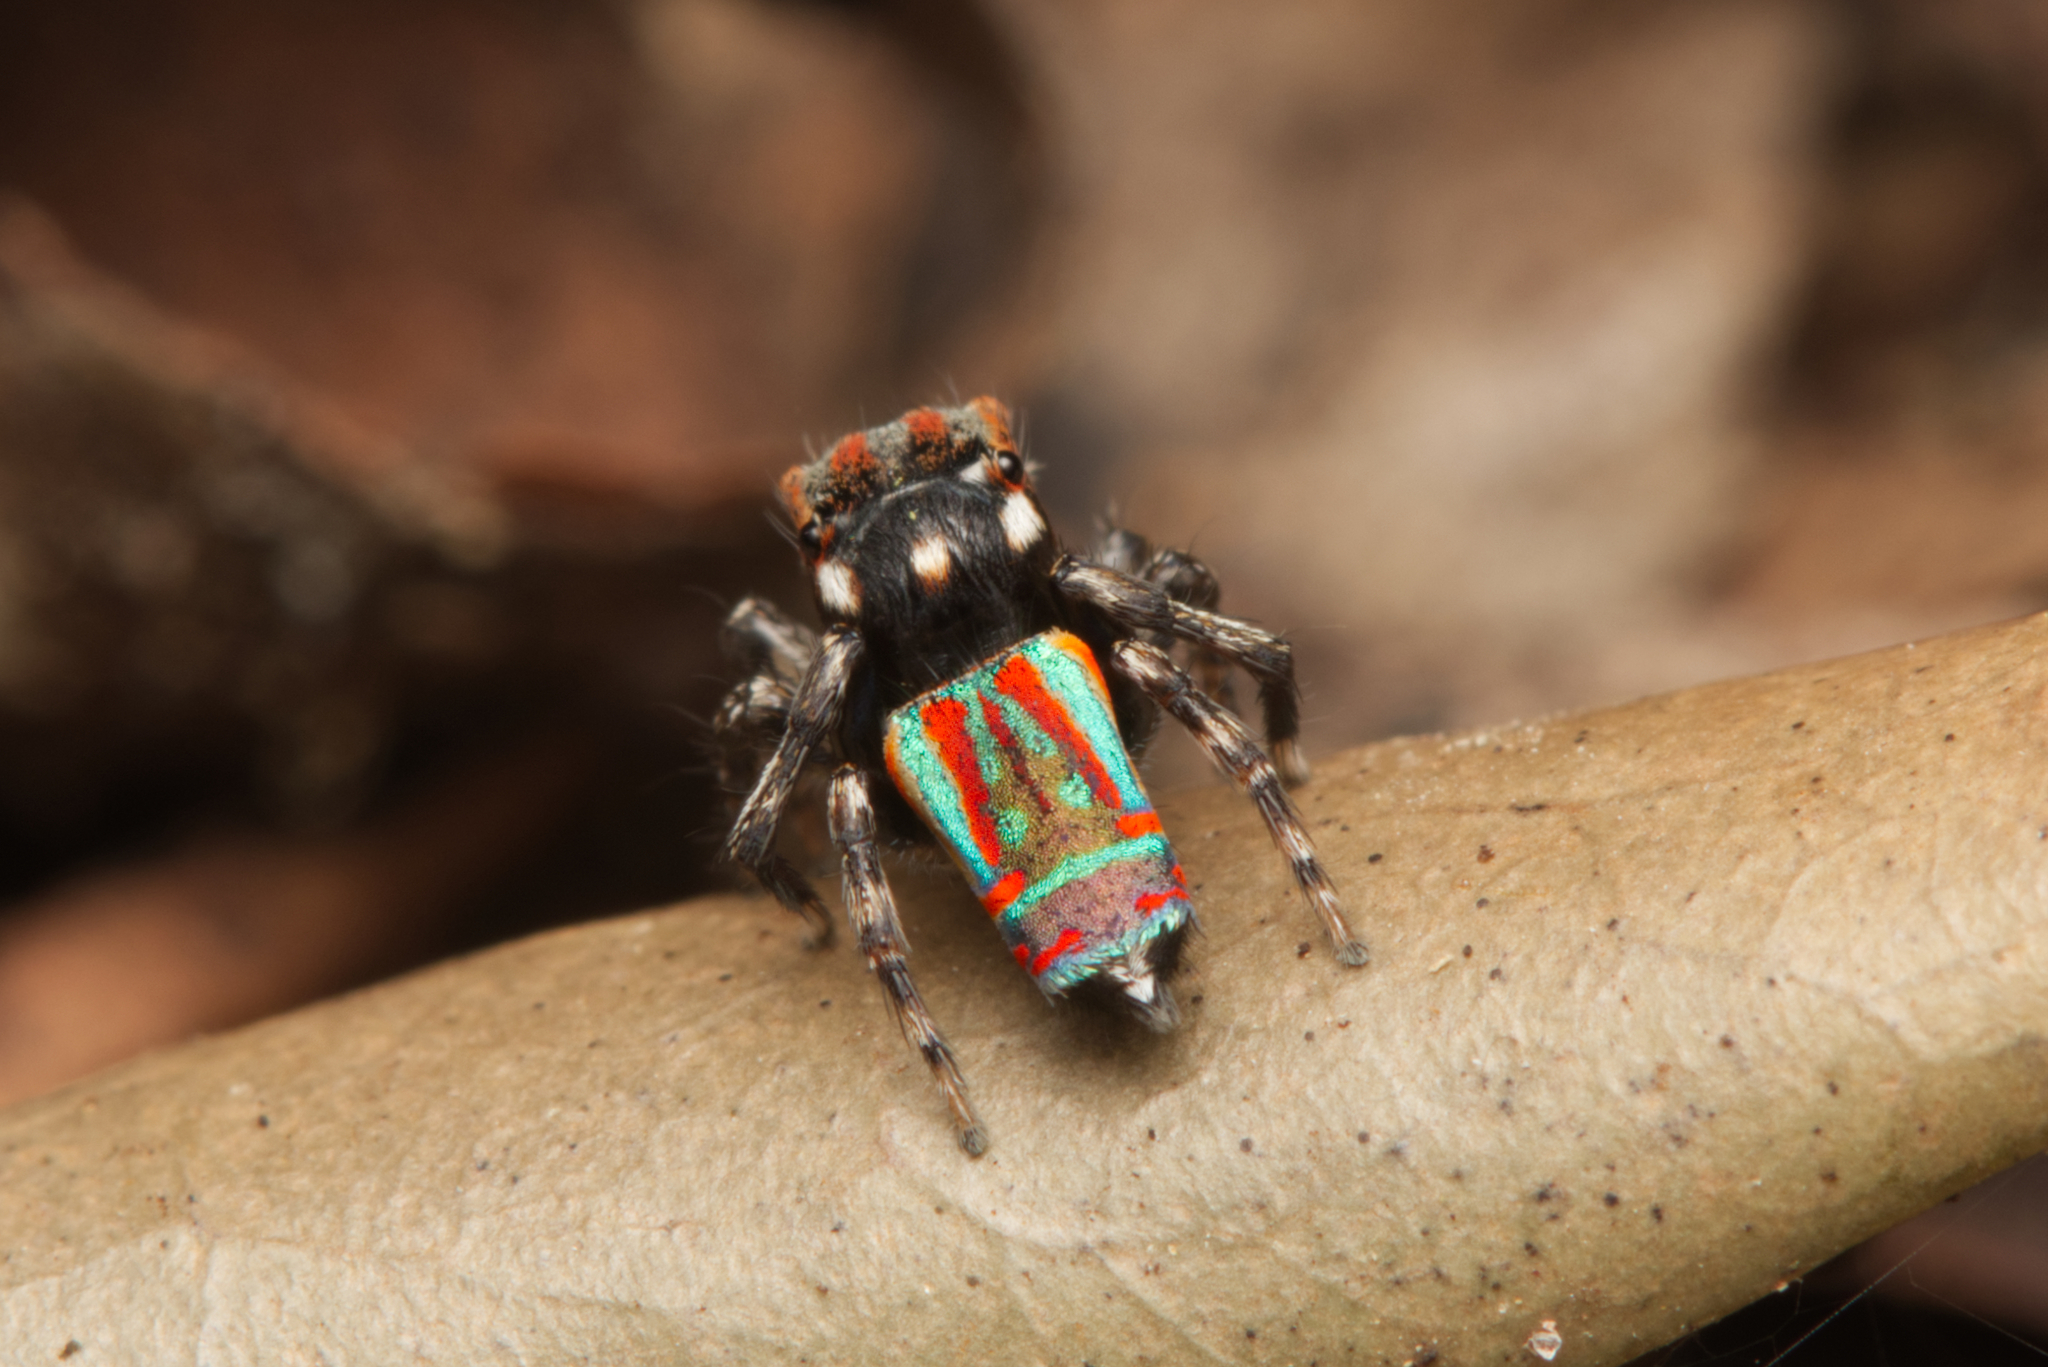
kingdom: Animalia
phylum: Arthropoda
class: Arachnida
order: Araneae
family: Salticidae
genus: Maratus
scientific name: Maratus volans
